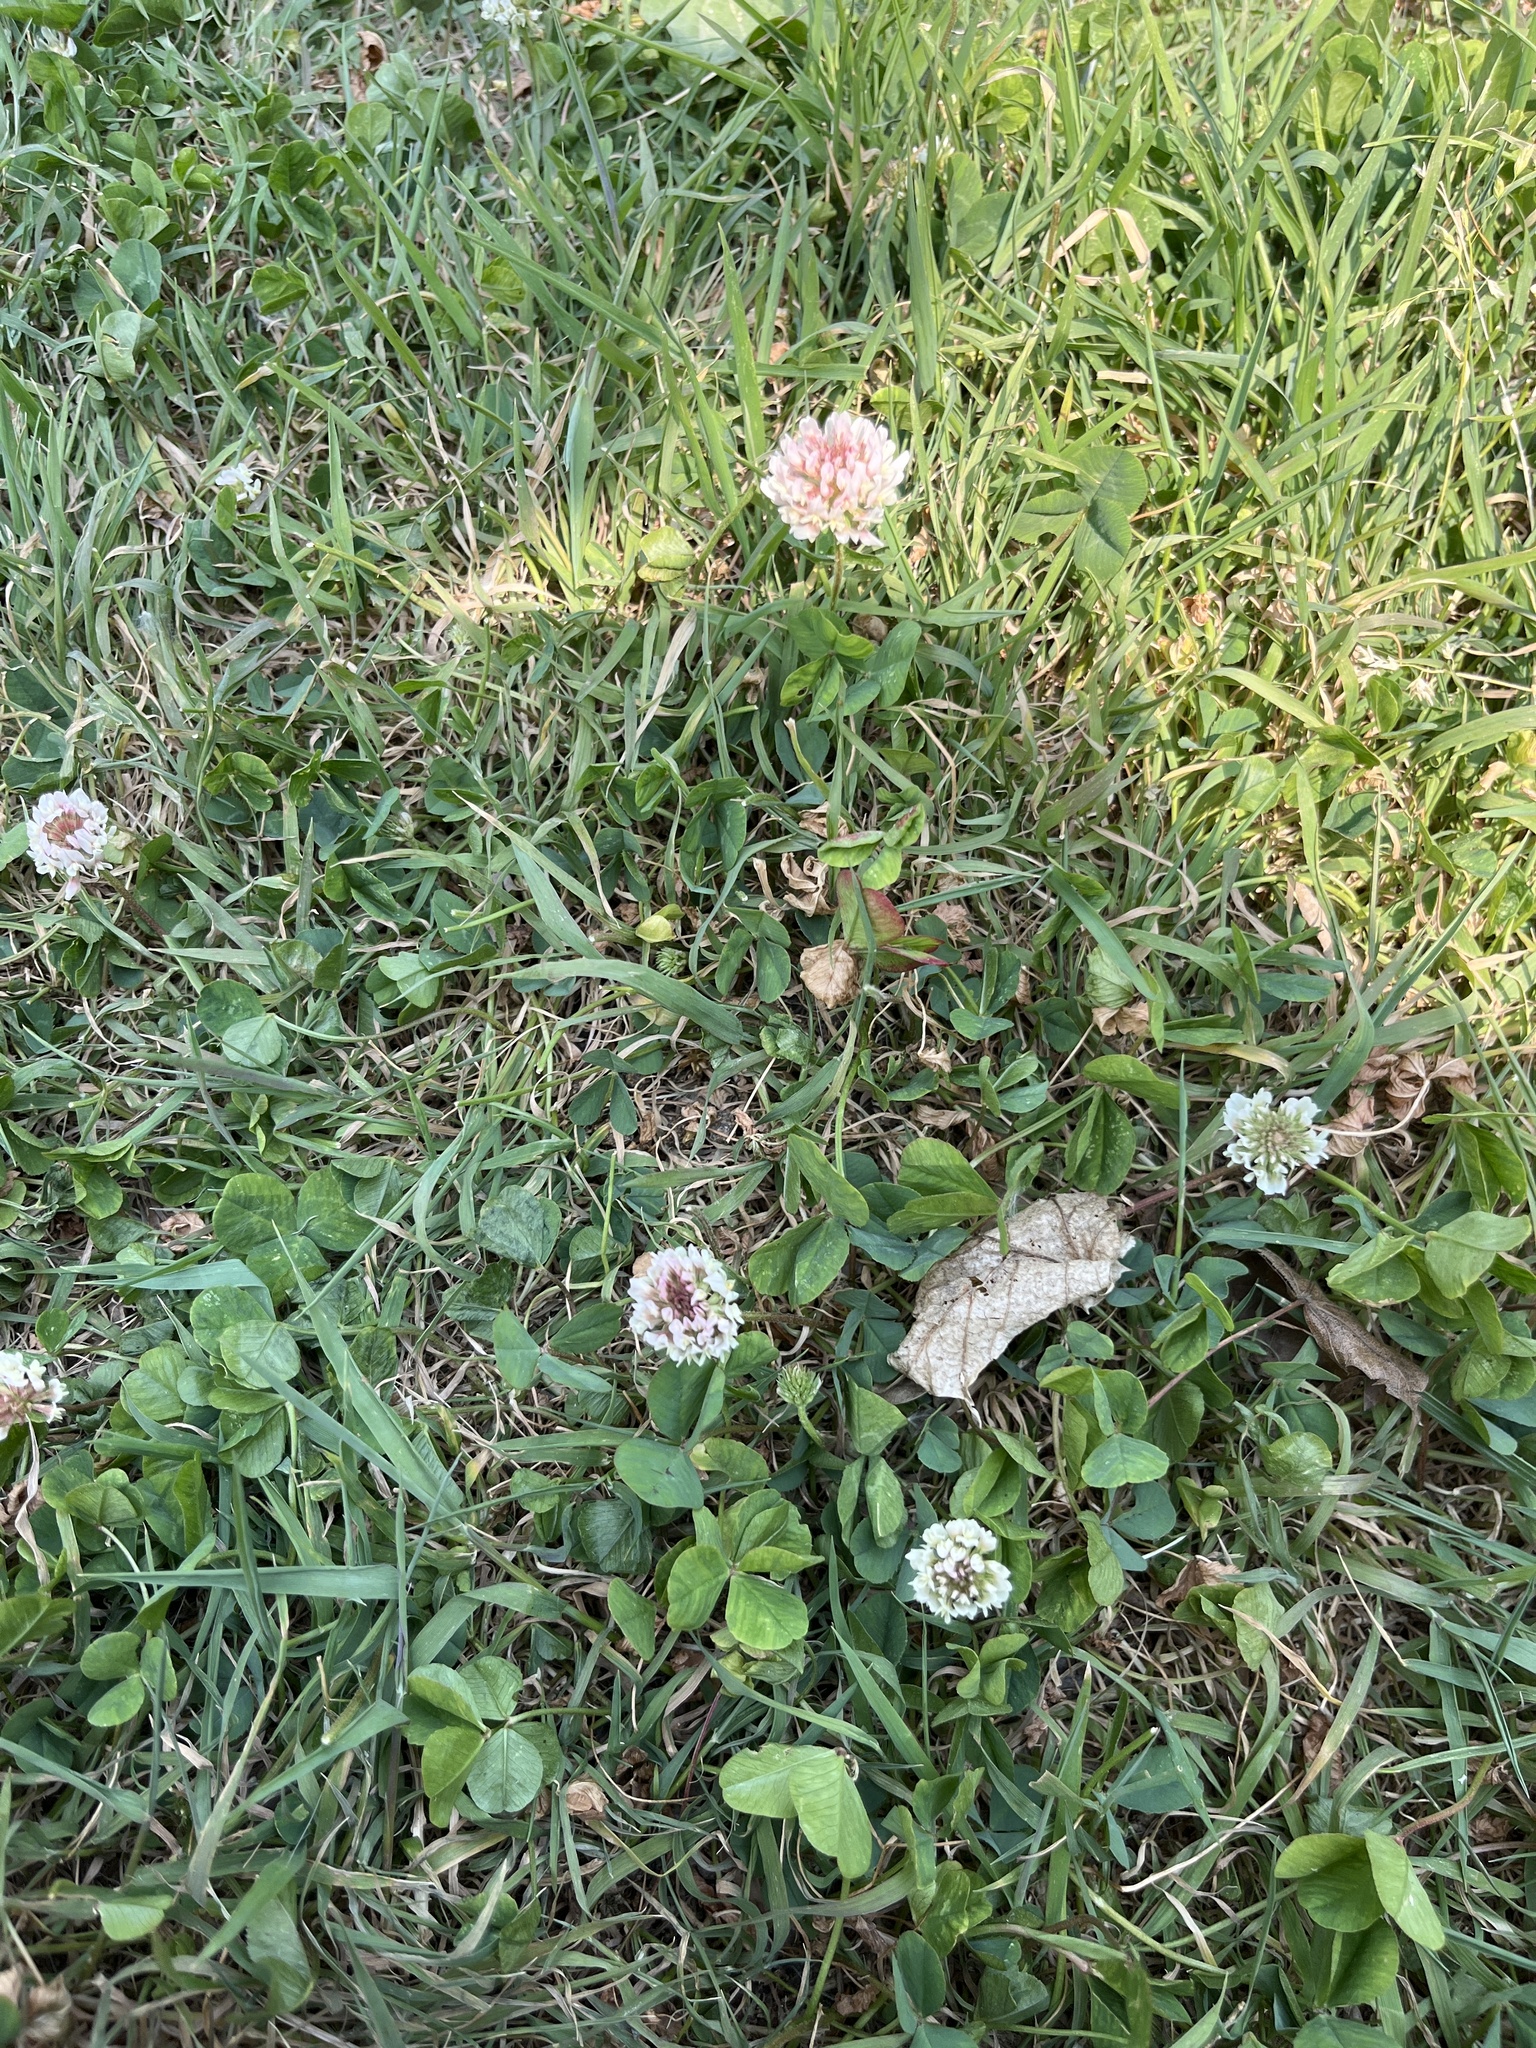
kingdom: Plantae
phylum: Tracheophyta
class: Magnoliopsida
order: Fabales
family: Fabaceae
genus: Trifolium
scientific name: Trifolium repens
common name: White clover
